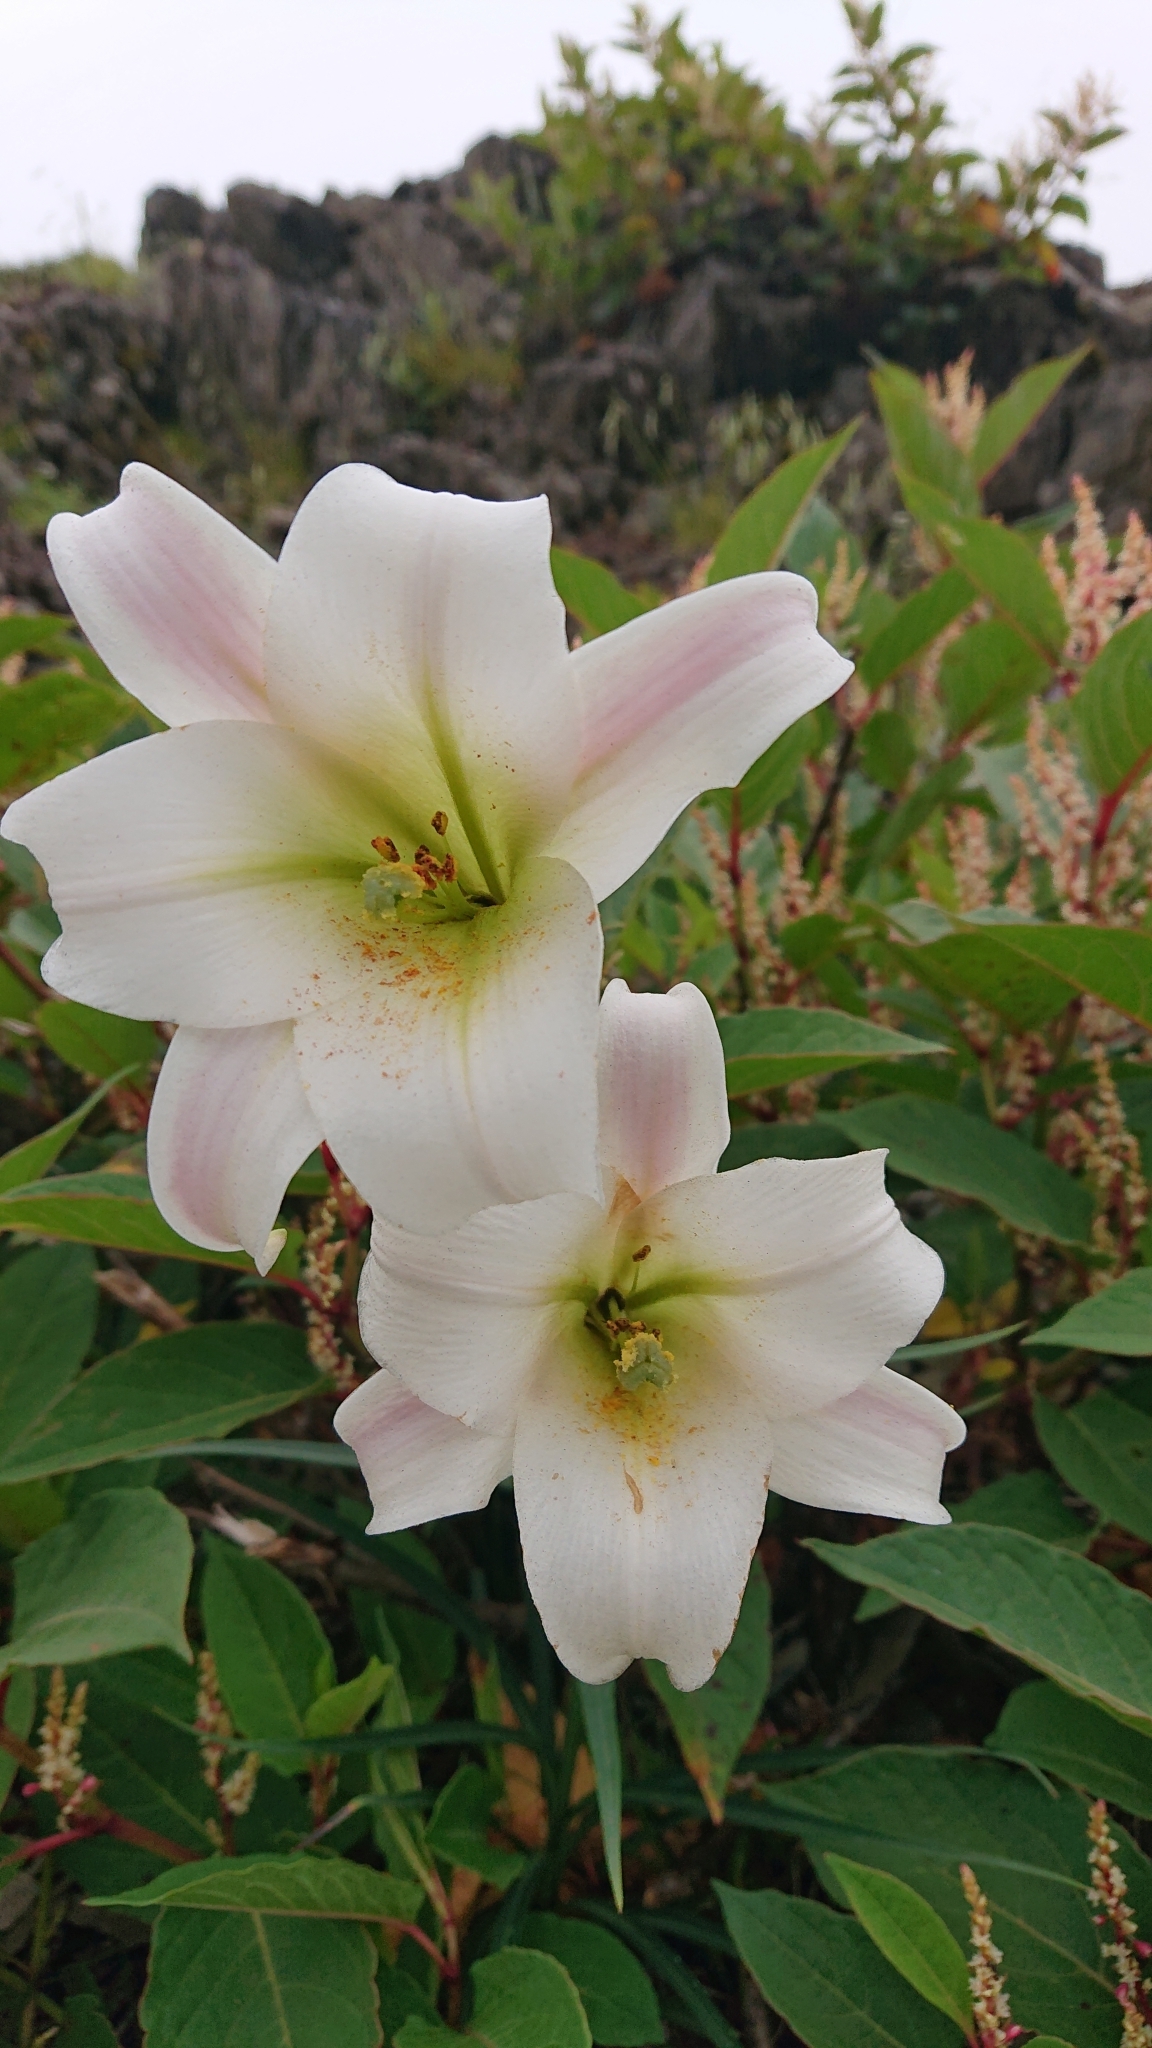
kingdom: Plantae
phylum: Tracheophyta
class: Liliopsida
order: Liliales
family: Liliaceae
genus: Lilium
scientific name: Lilium formosanum
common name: Formosa lily
